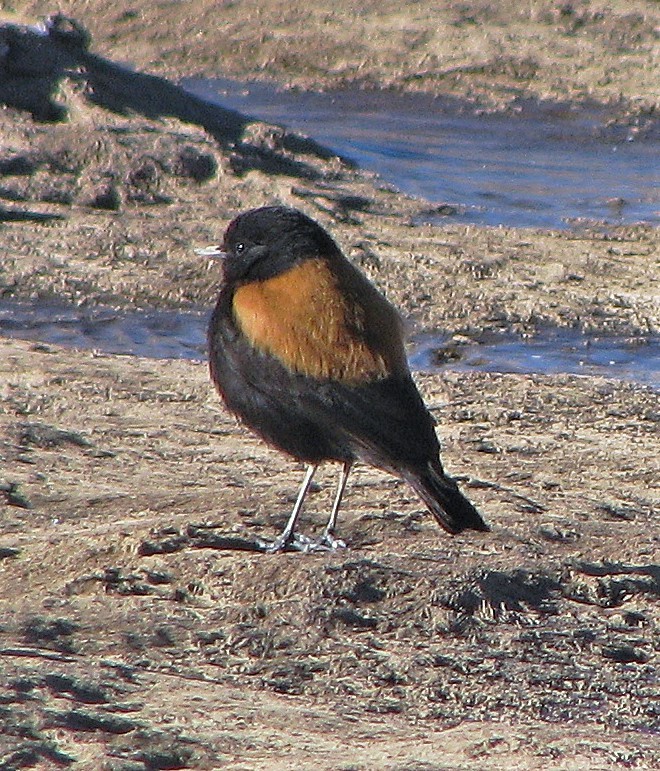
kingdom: Animalia
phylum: Chordata
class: Aves
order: Passeriformes
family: Tyrannidae
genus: Lessonia
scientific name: Lessonia oreas
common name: Andean negrito
